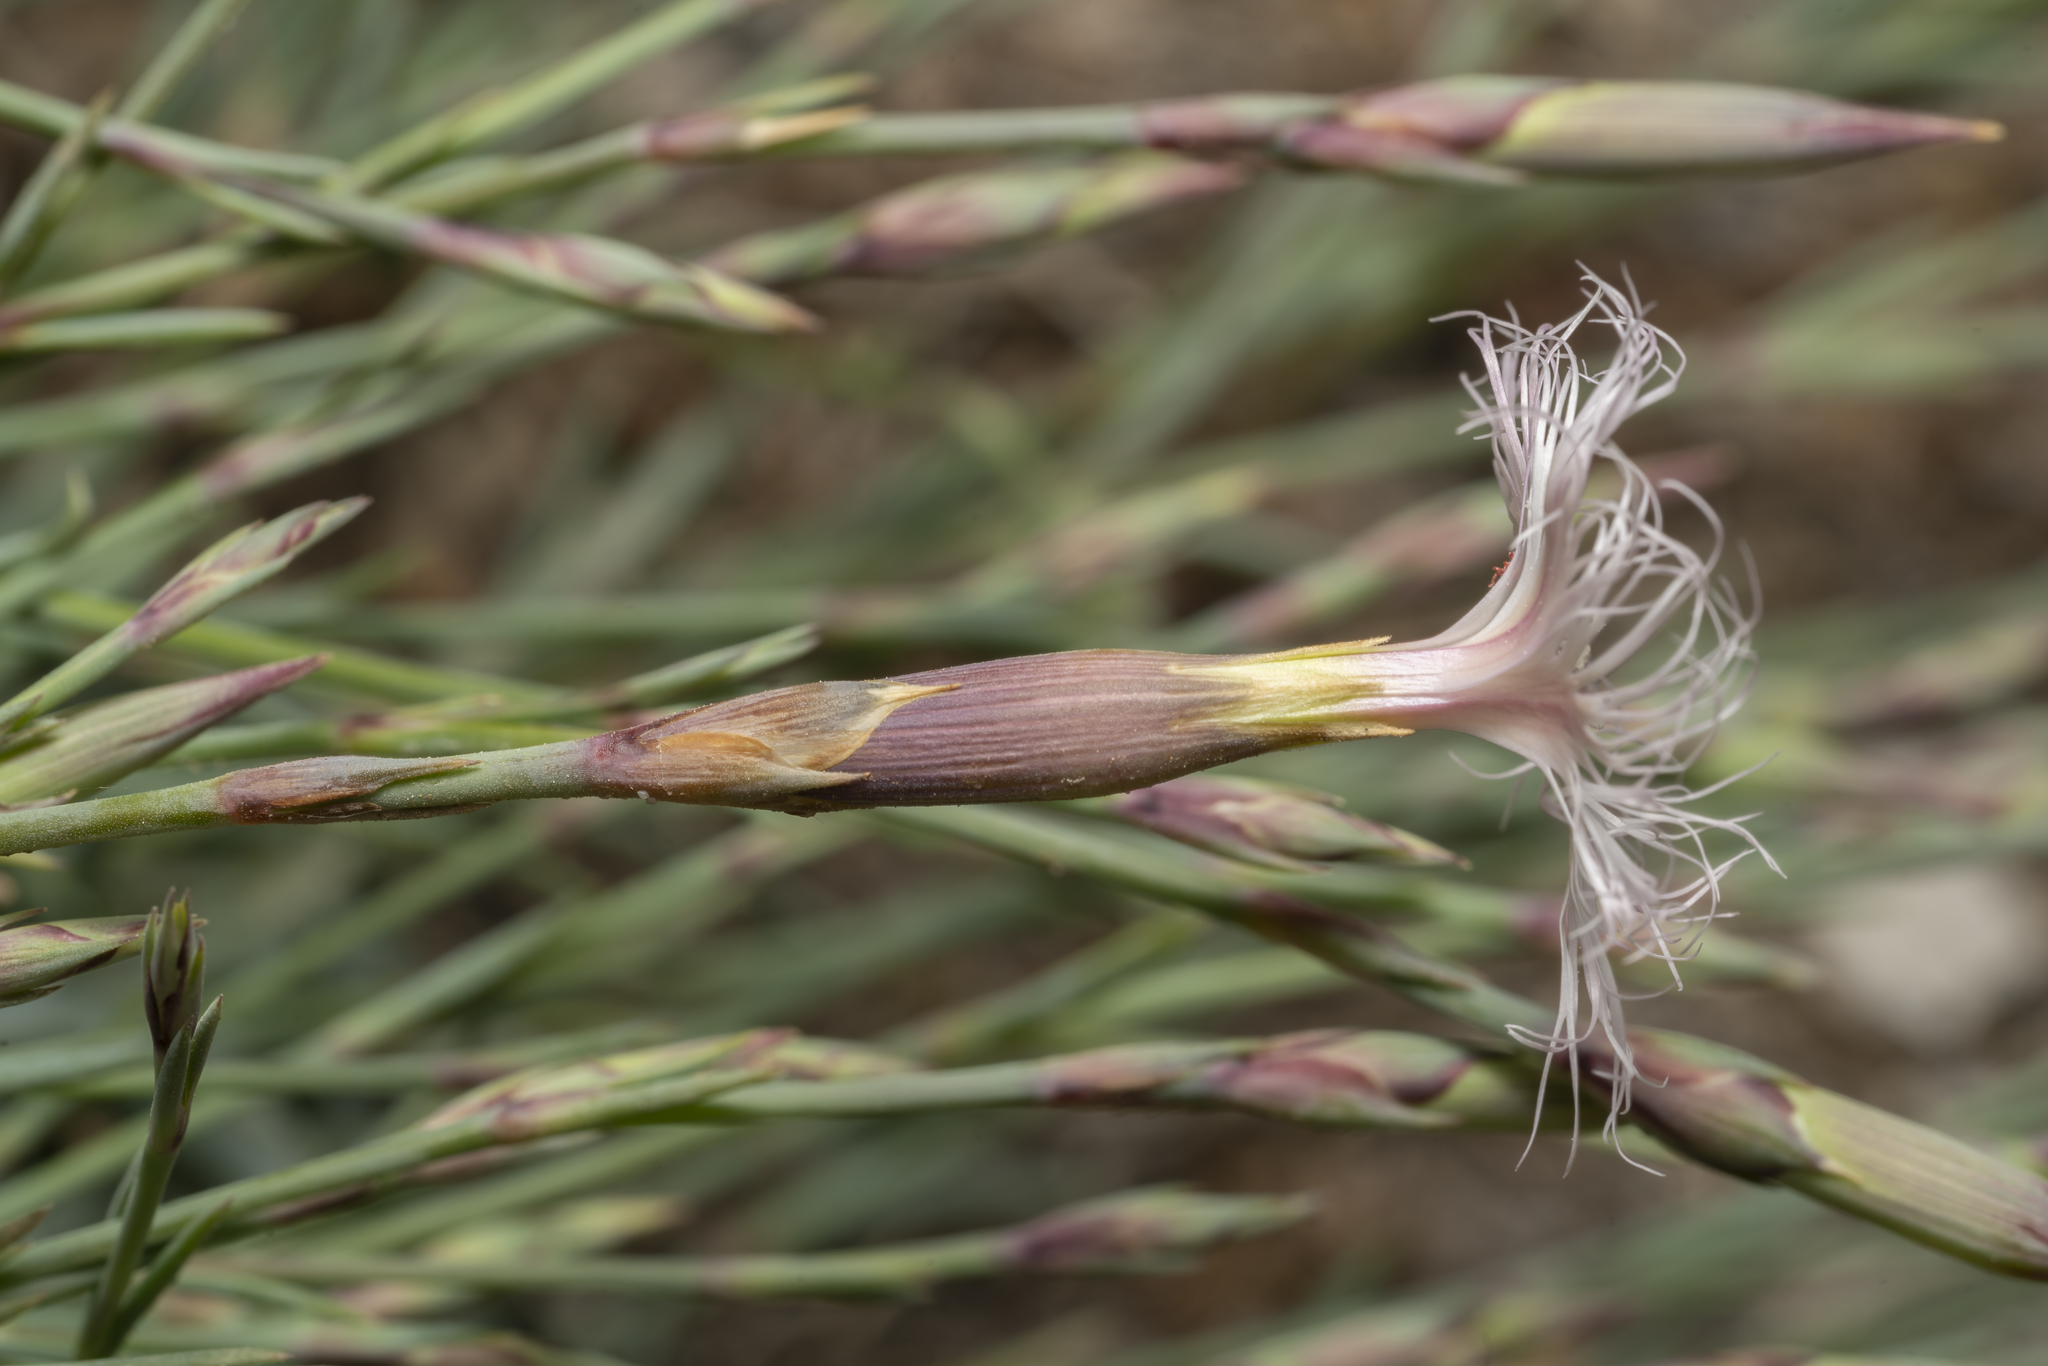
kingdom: Plantae
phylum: Tracheophyta
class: Magnoliopsida
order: Caryophyllales
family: Caryophyllaceae
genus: Dianthus
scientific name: Dianthus crinitus
